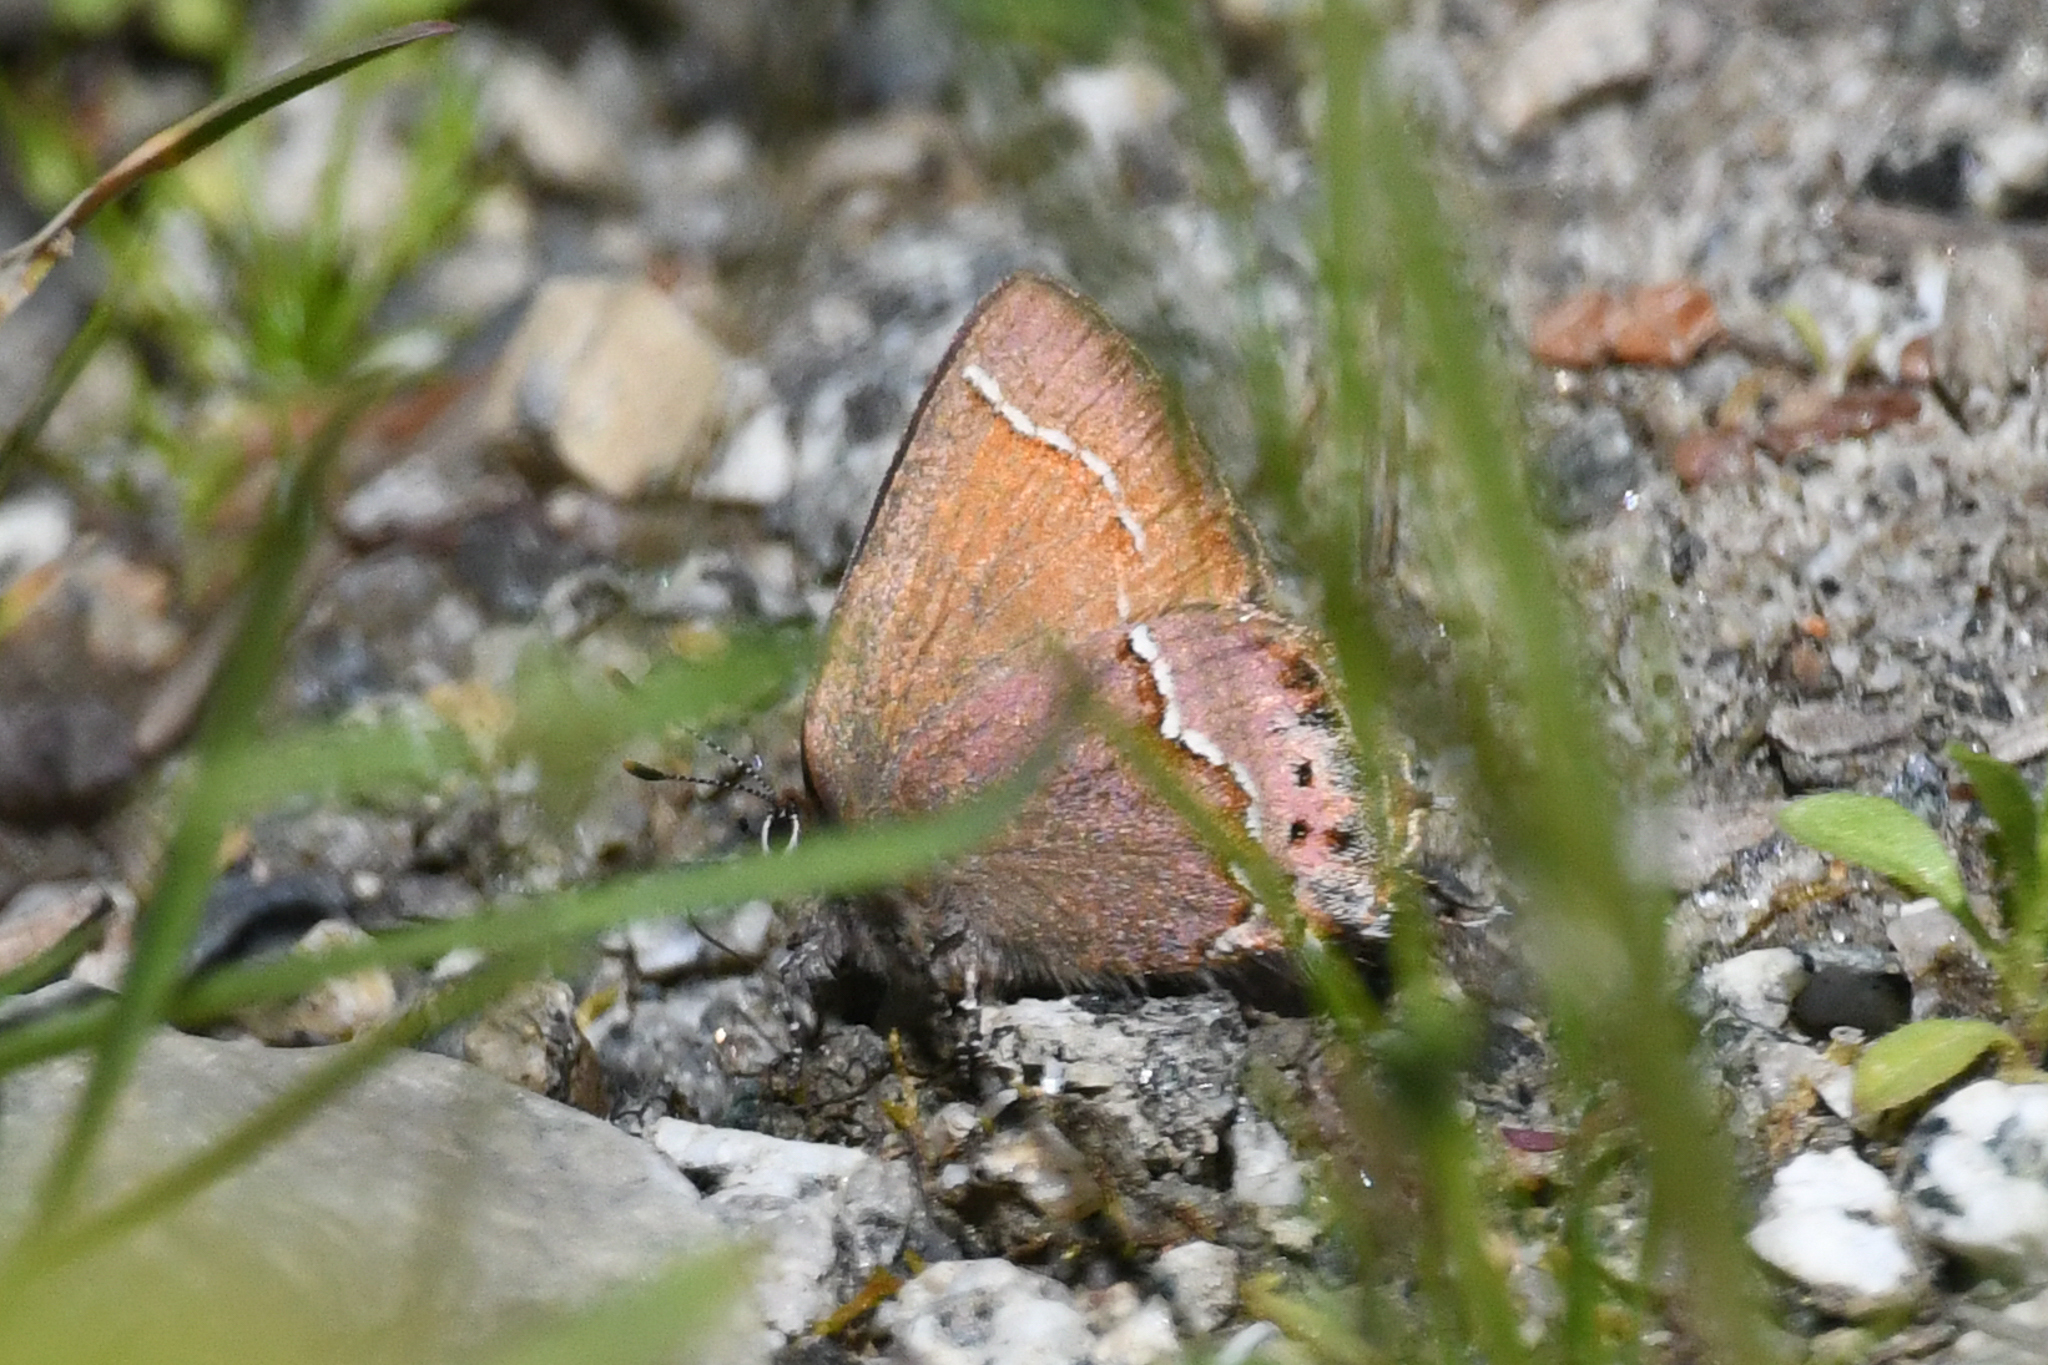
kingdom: Animalia
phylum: Arthropoda
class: Insecta
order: Lepidoptera
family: Lycaenidae
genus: Mitoura
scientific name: Mitoura gryneus
